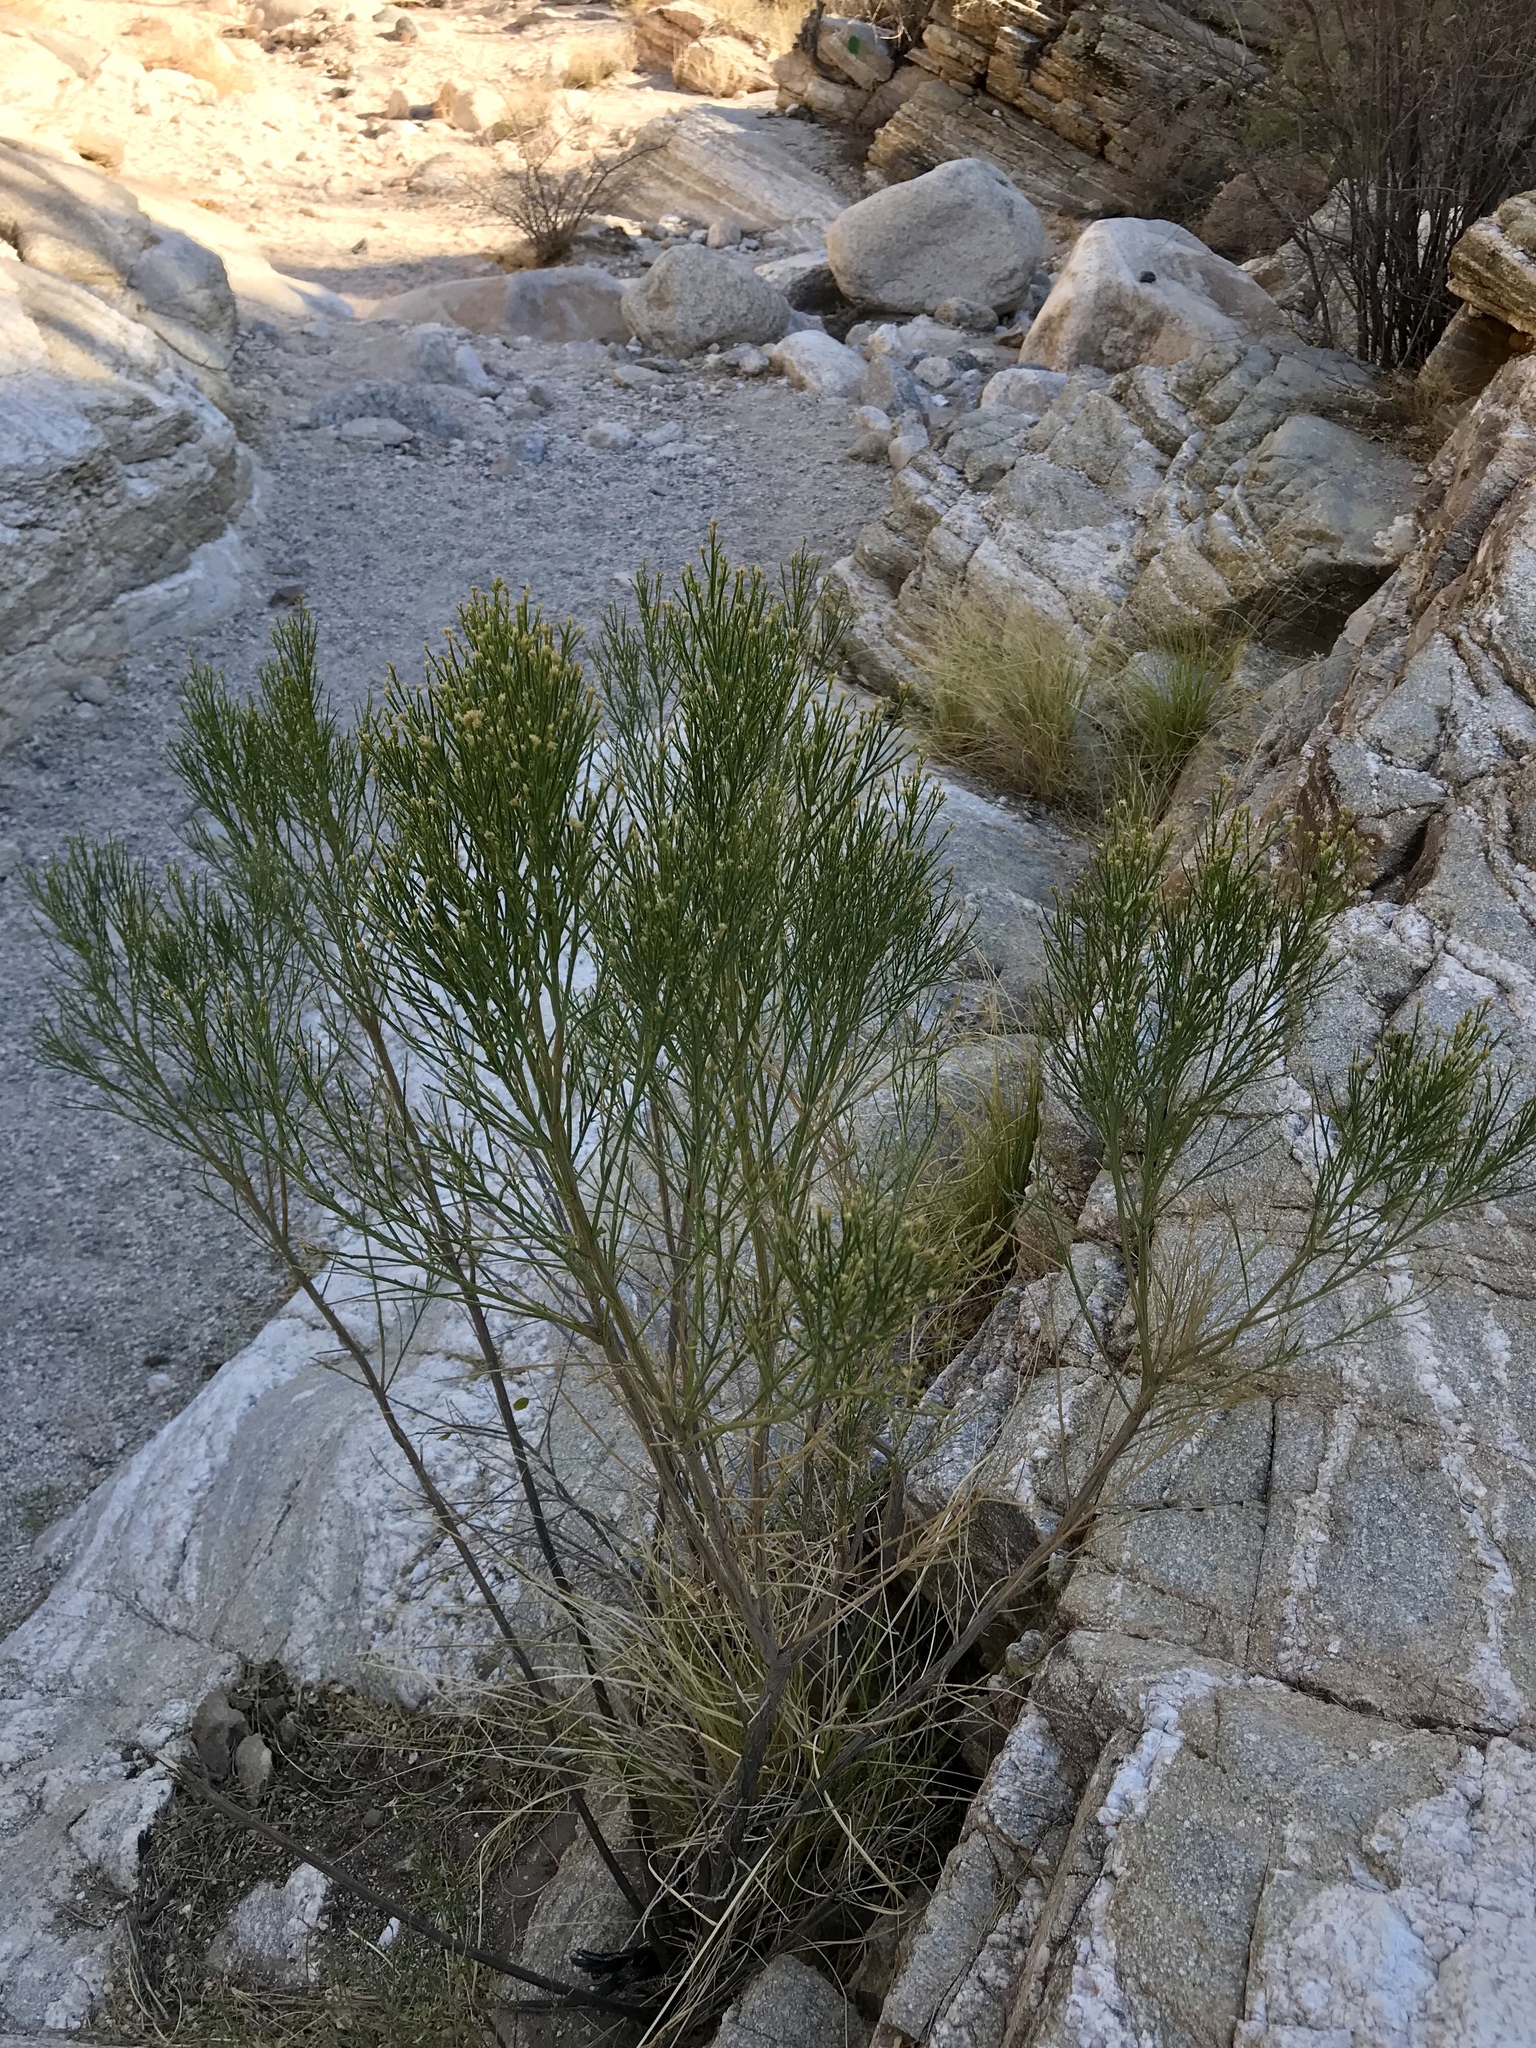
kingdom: Plantae
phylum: Tracheophyta
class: Magnoliopsida
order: Asterales
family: Asteraceae
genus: Baccharis
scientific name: Baccharis sarothroides
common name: Desert-broom
